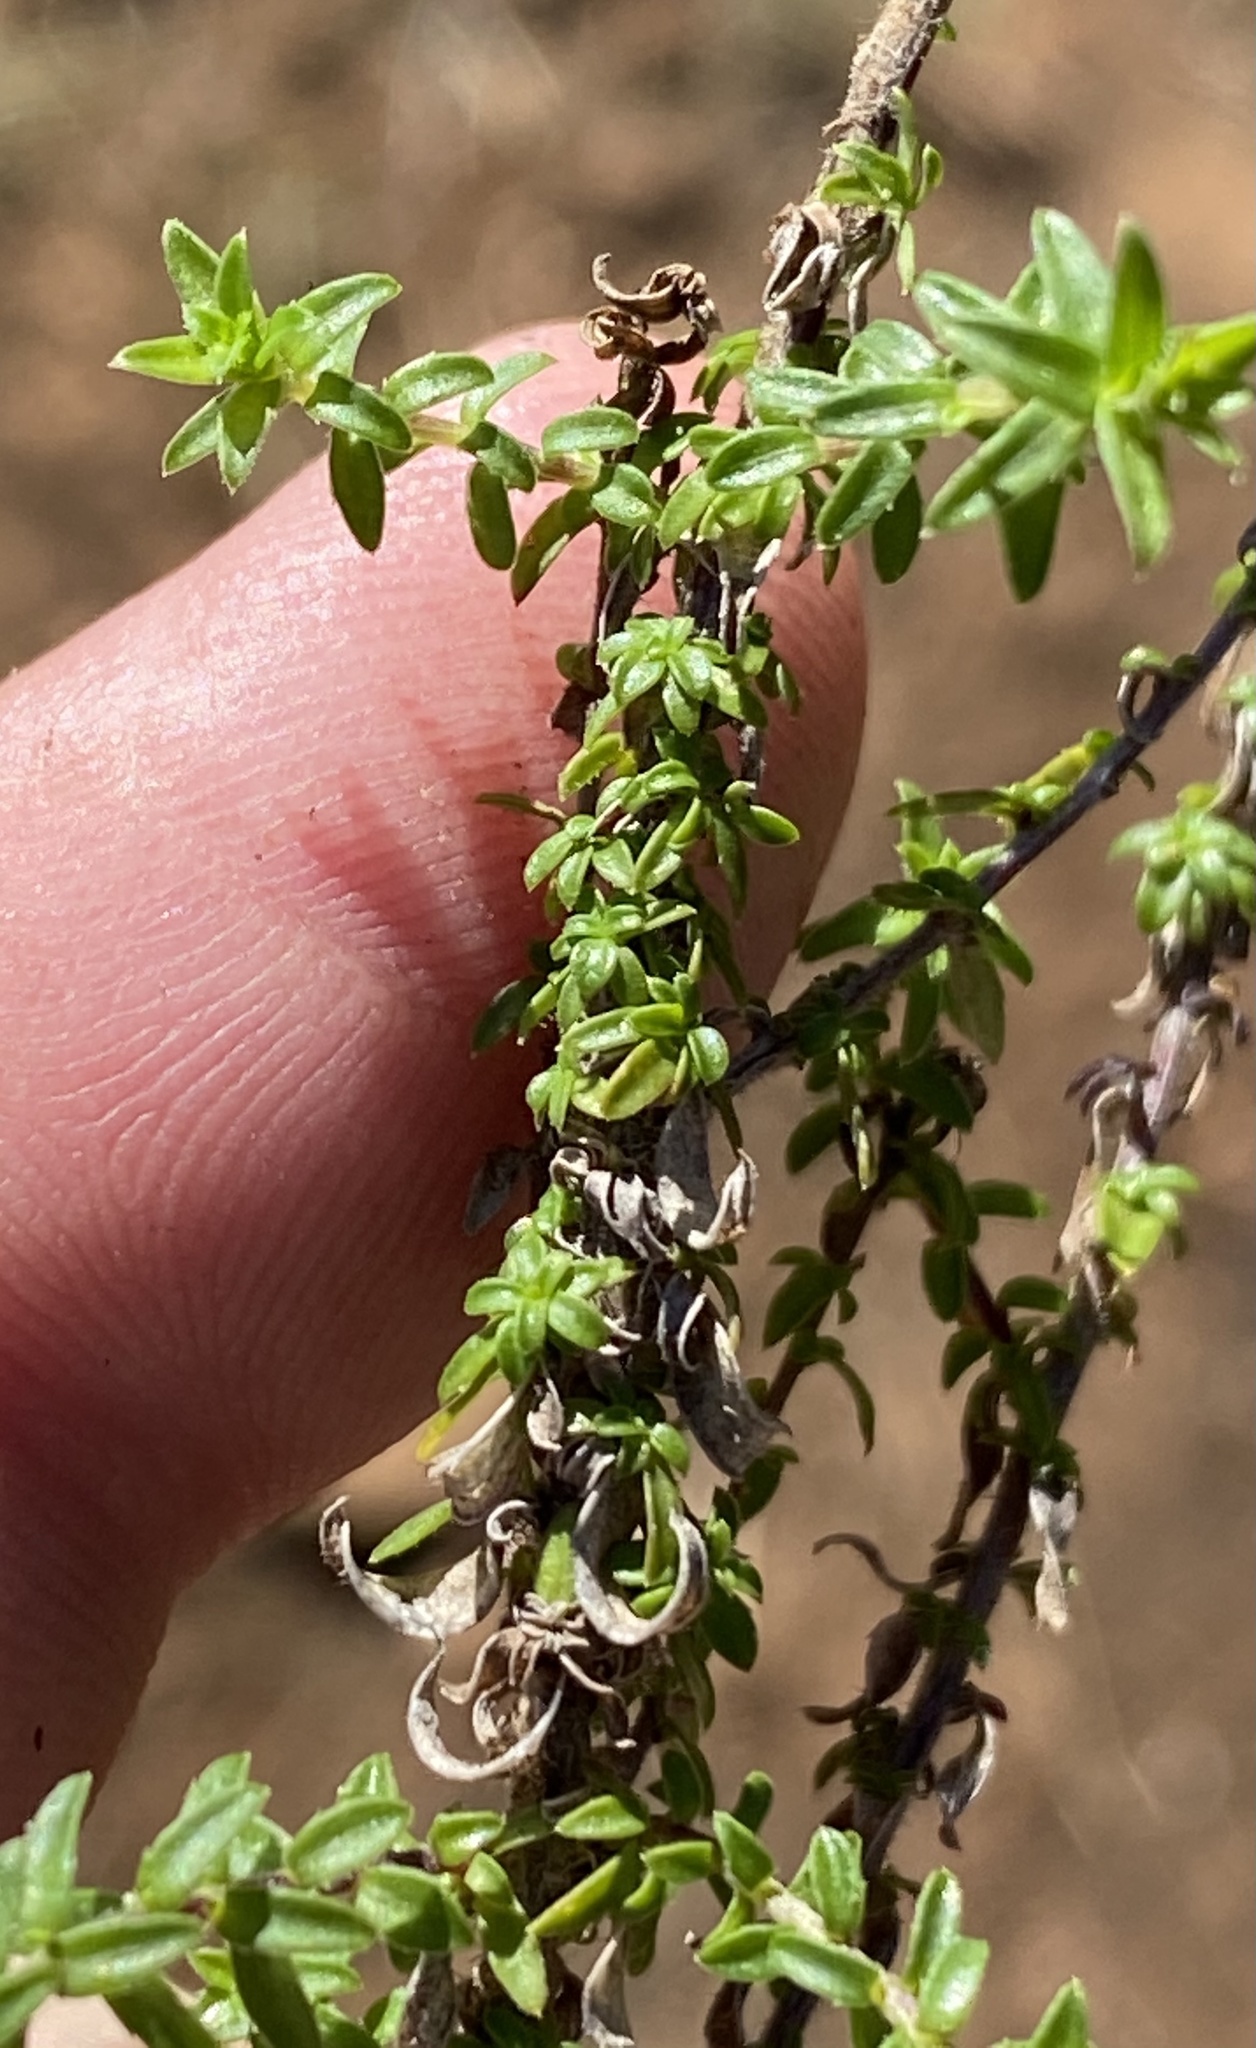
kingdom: Plantae
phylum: Tracheophyta
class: Magnoliopsida
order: Asterales
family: Campanulaceae
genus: Wahlenbergia
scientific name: Wahlenbergia tenella
